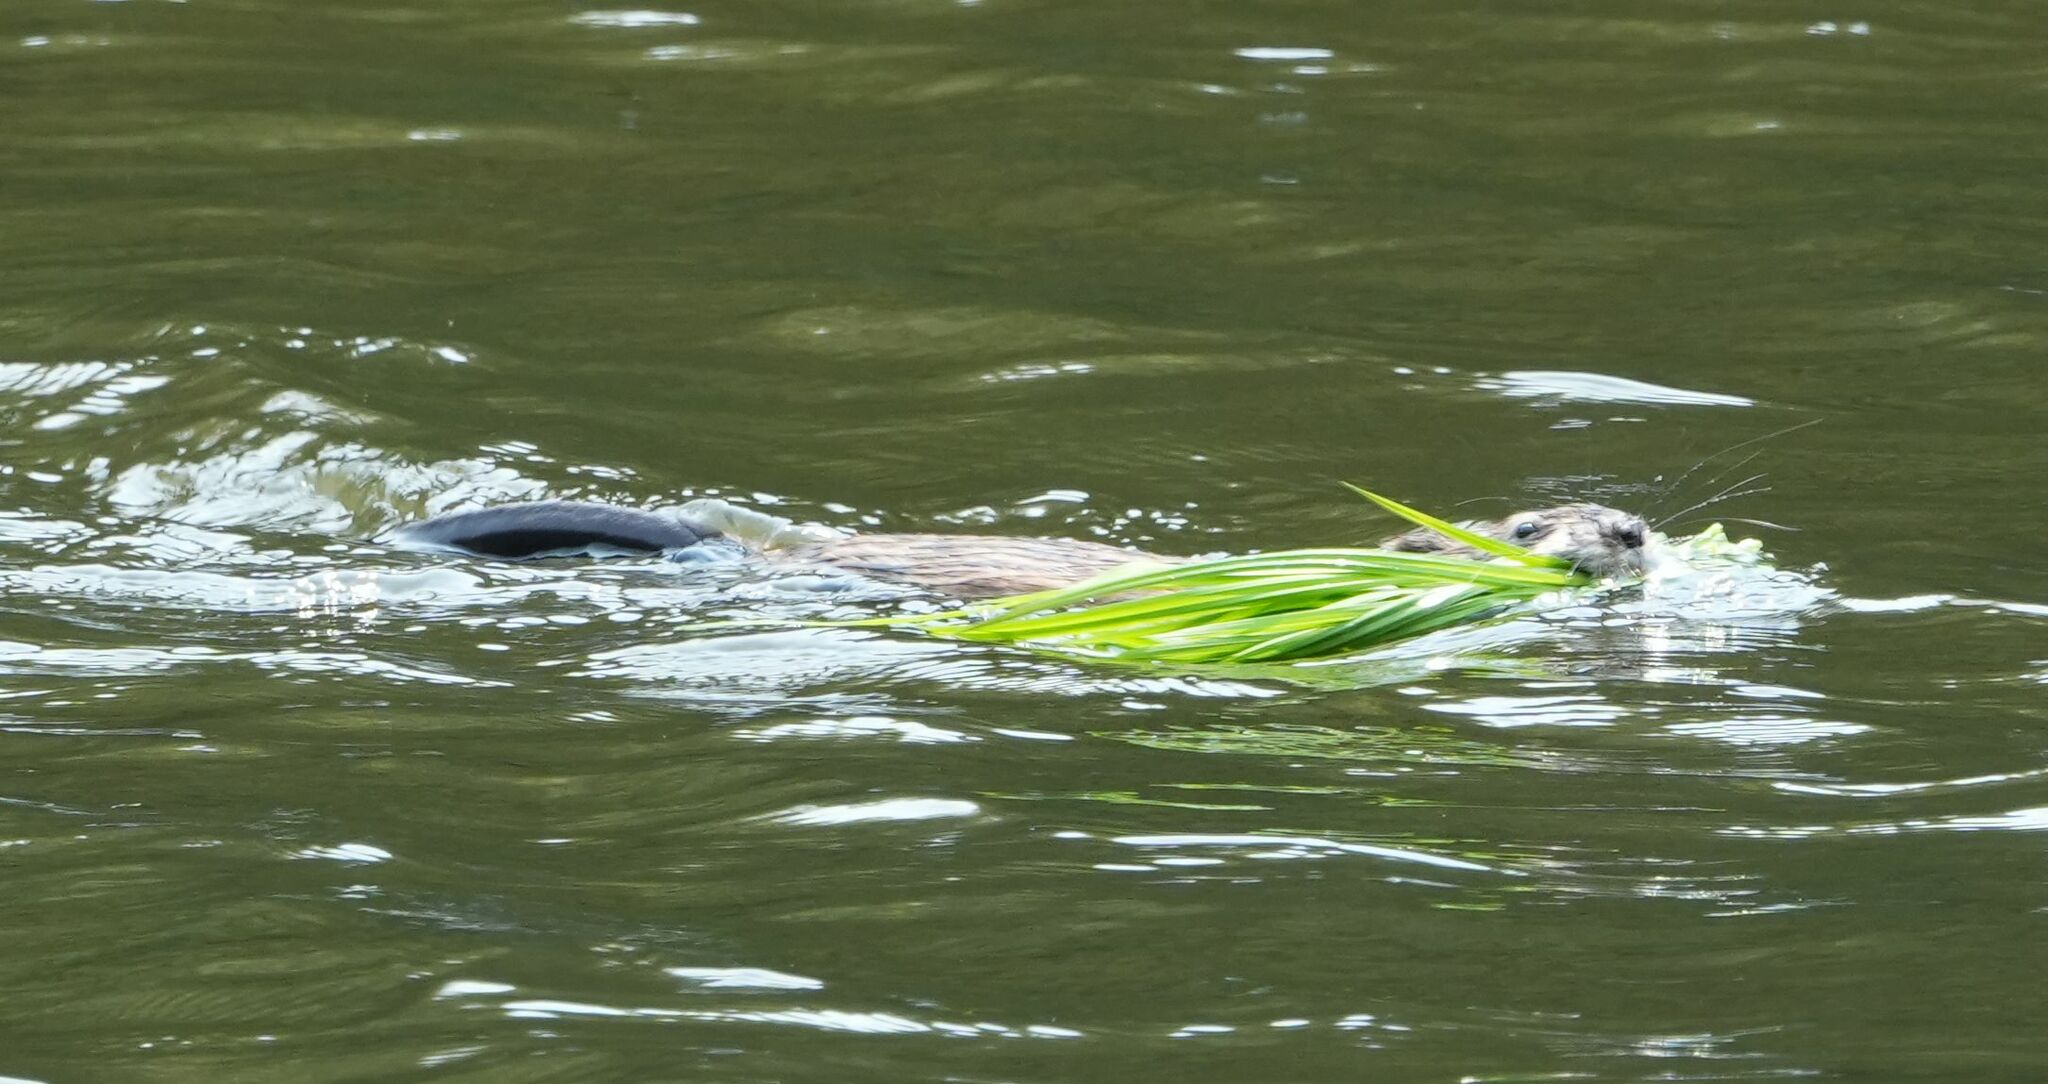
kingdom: Animalia
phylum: Chordata
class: Mammalia
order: Rodentia
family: Cricetidae
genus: Ondatra
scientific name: Ondatra zibethicus
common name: Muskrat
